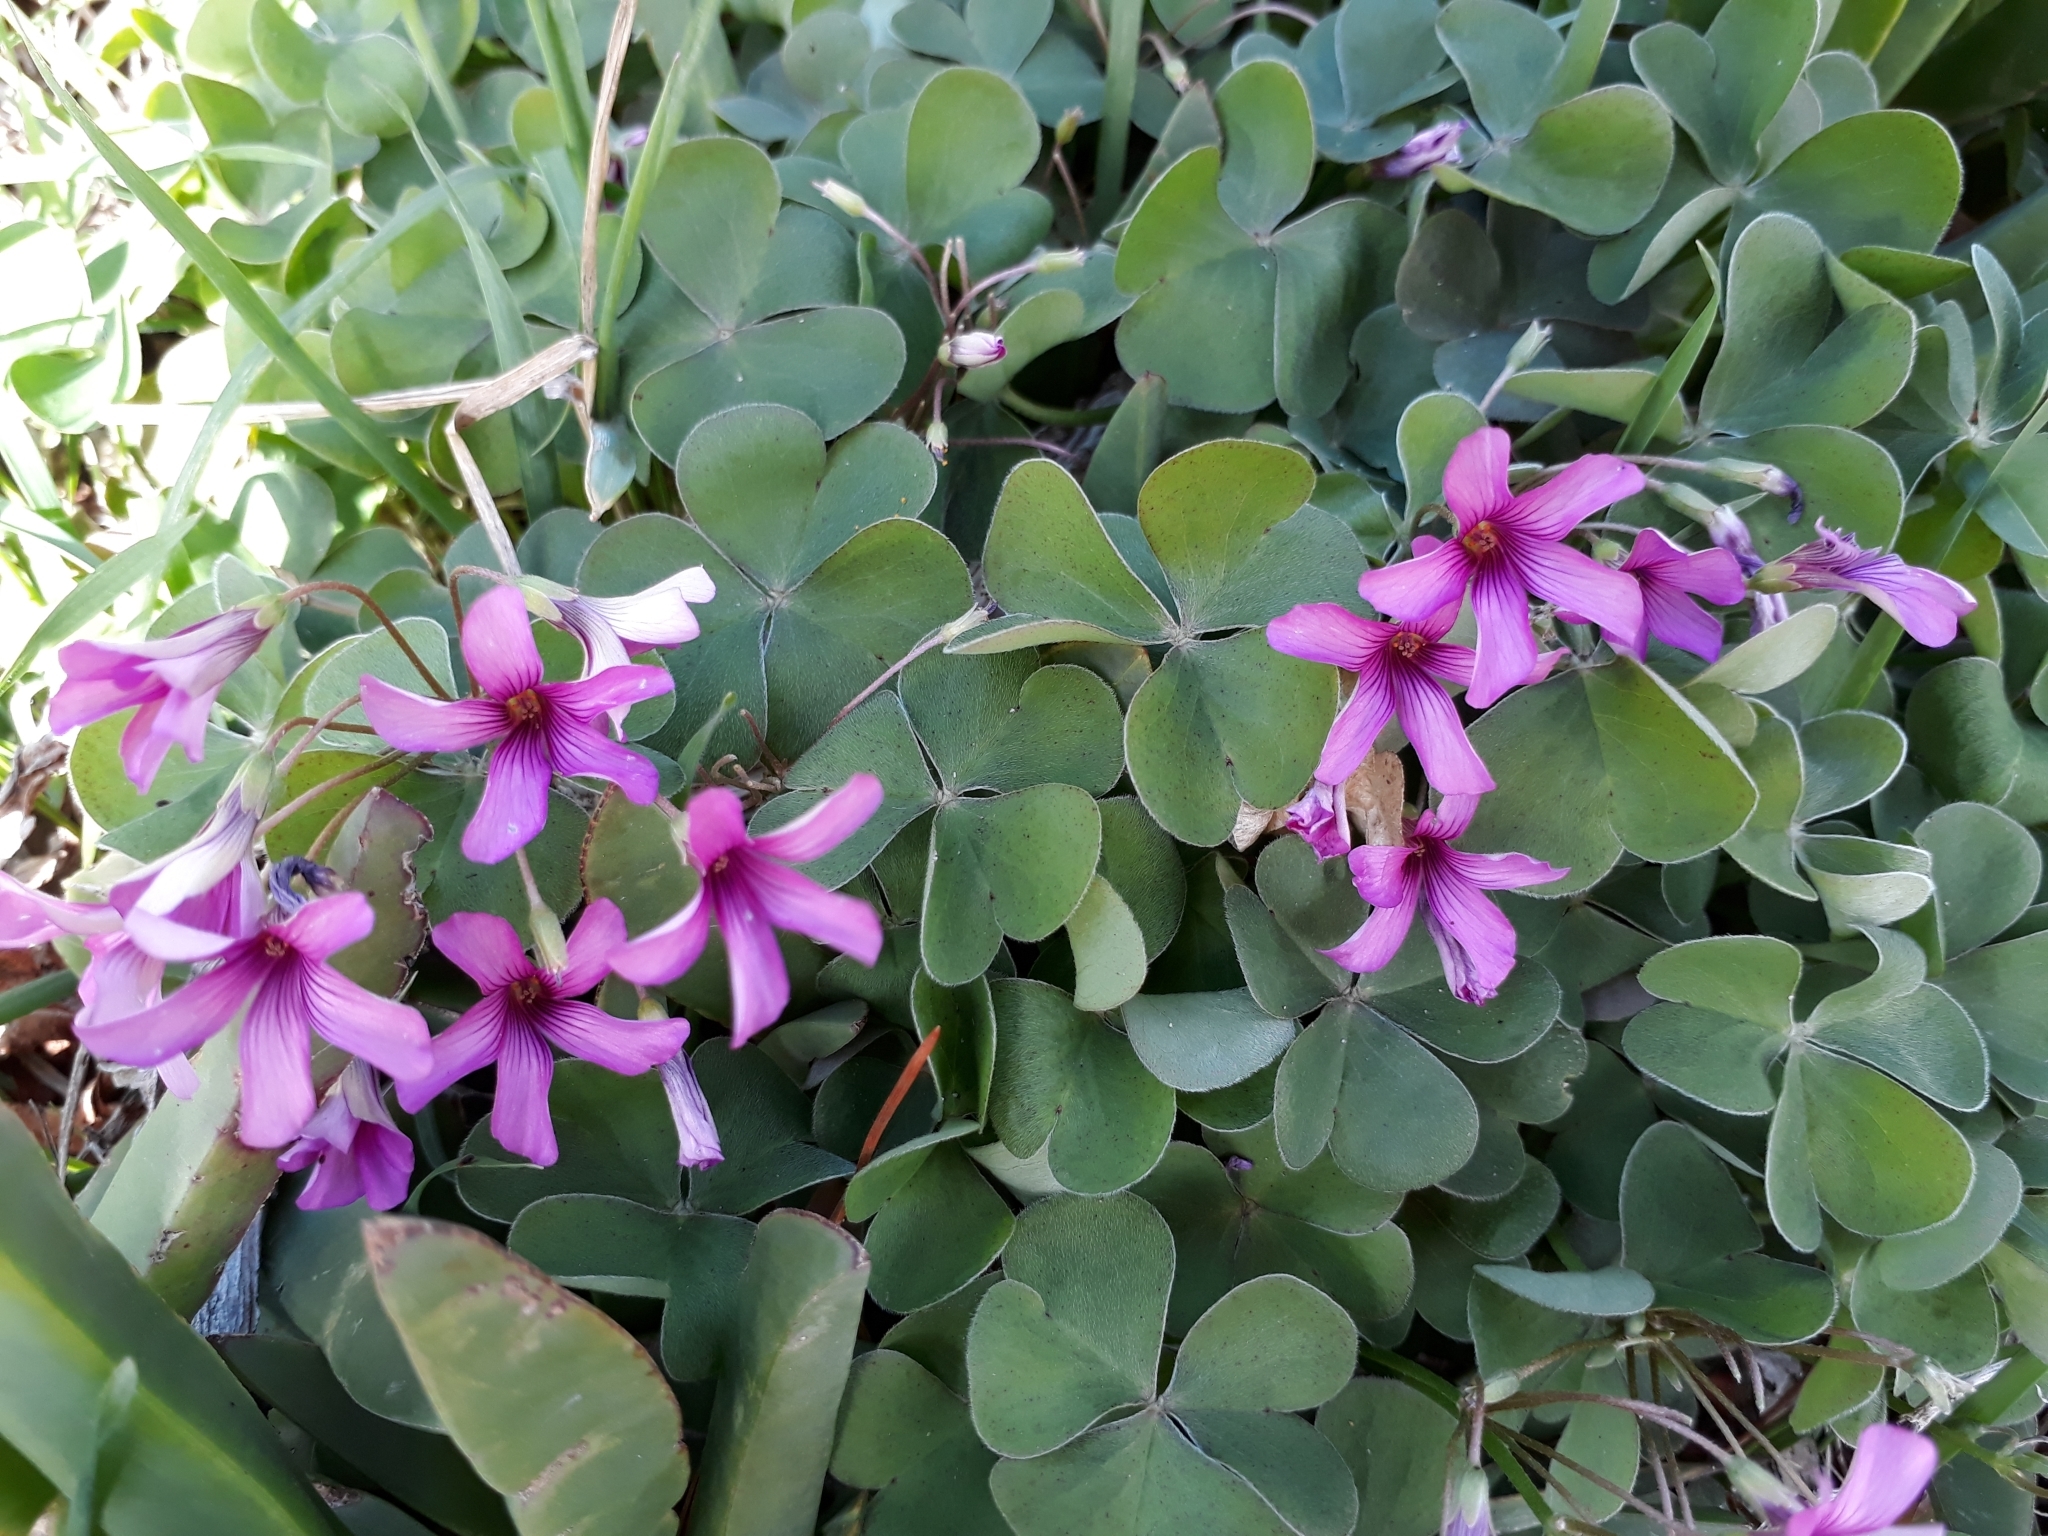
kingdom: Plantae
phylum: Tracheophyta
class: Magnoliopsida
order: Oxalidales
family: Oxalidaceae
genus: Oxalis
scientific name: Oxalis articulata
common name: Pink-sorrel
